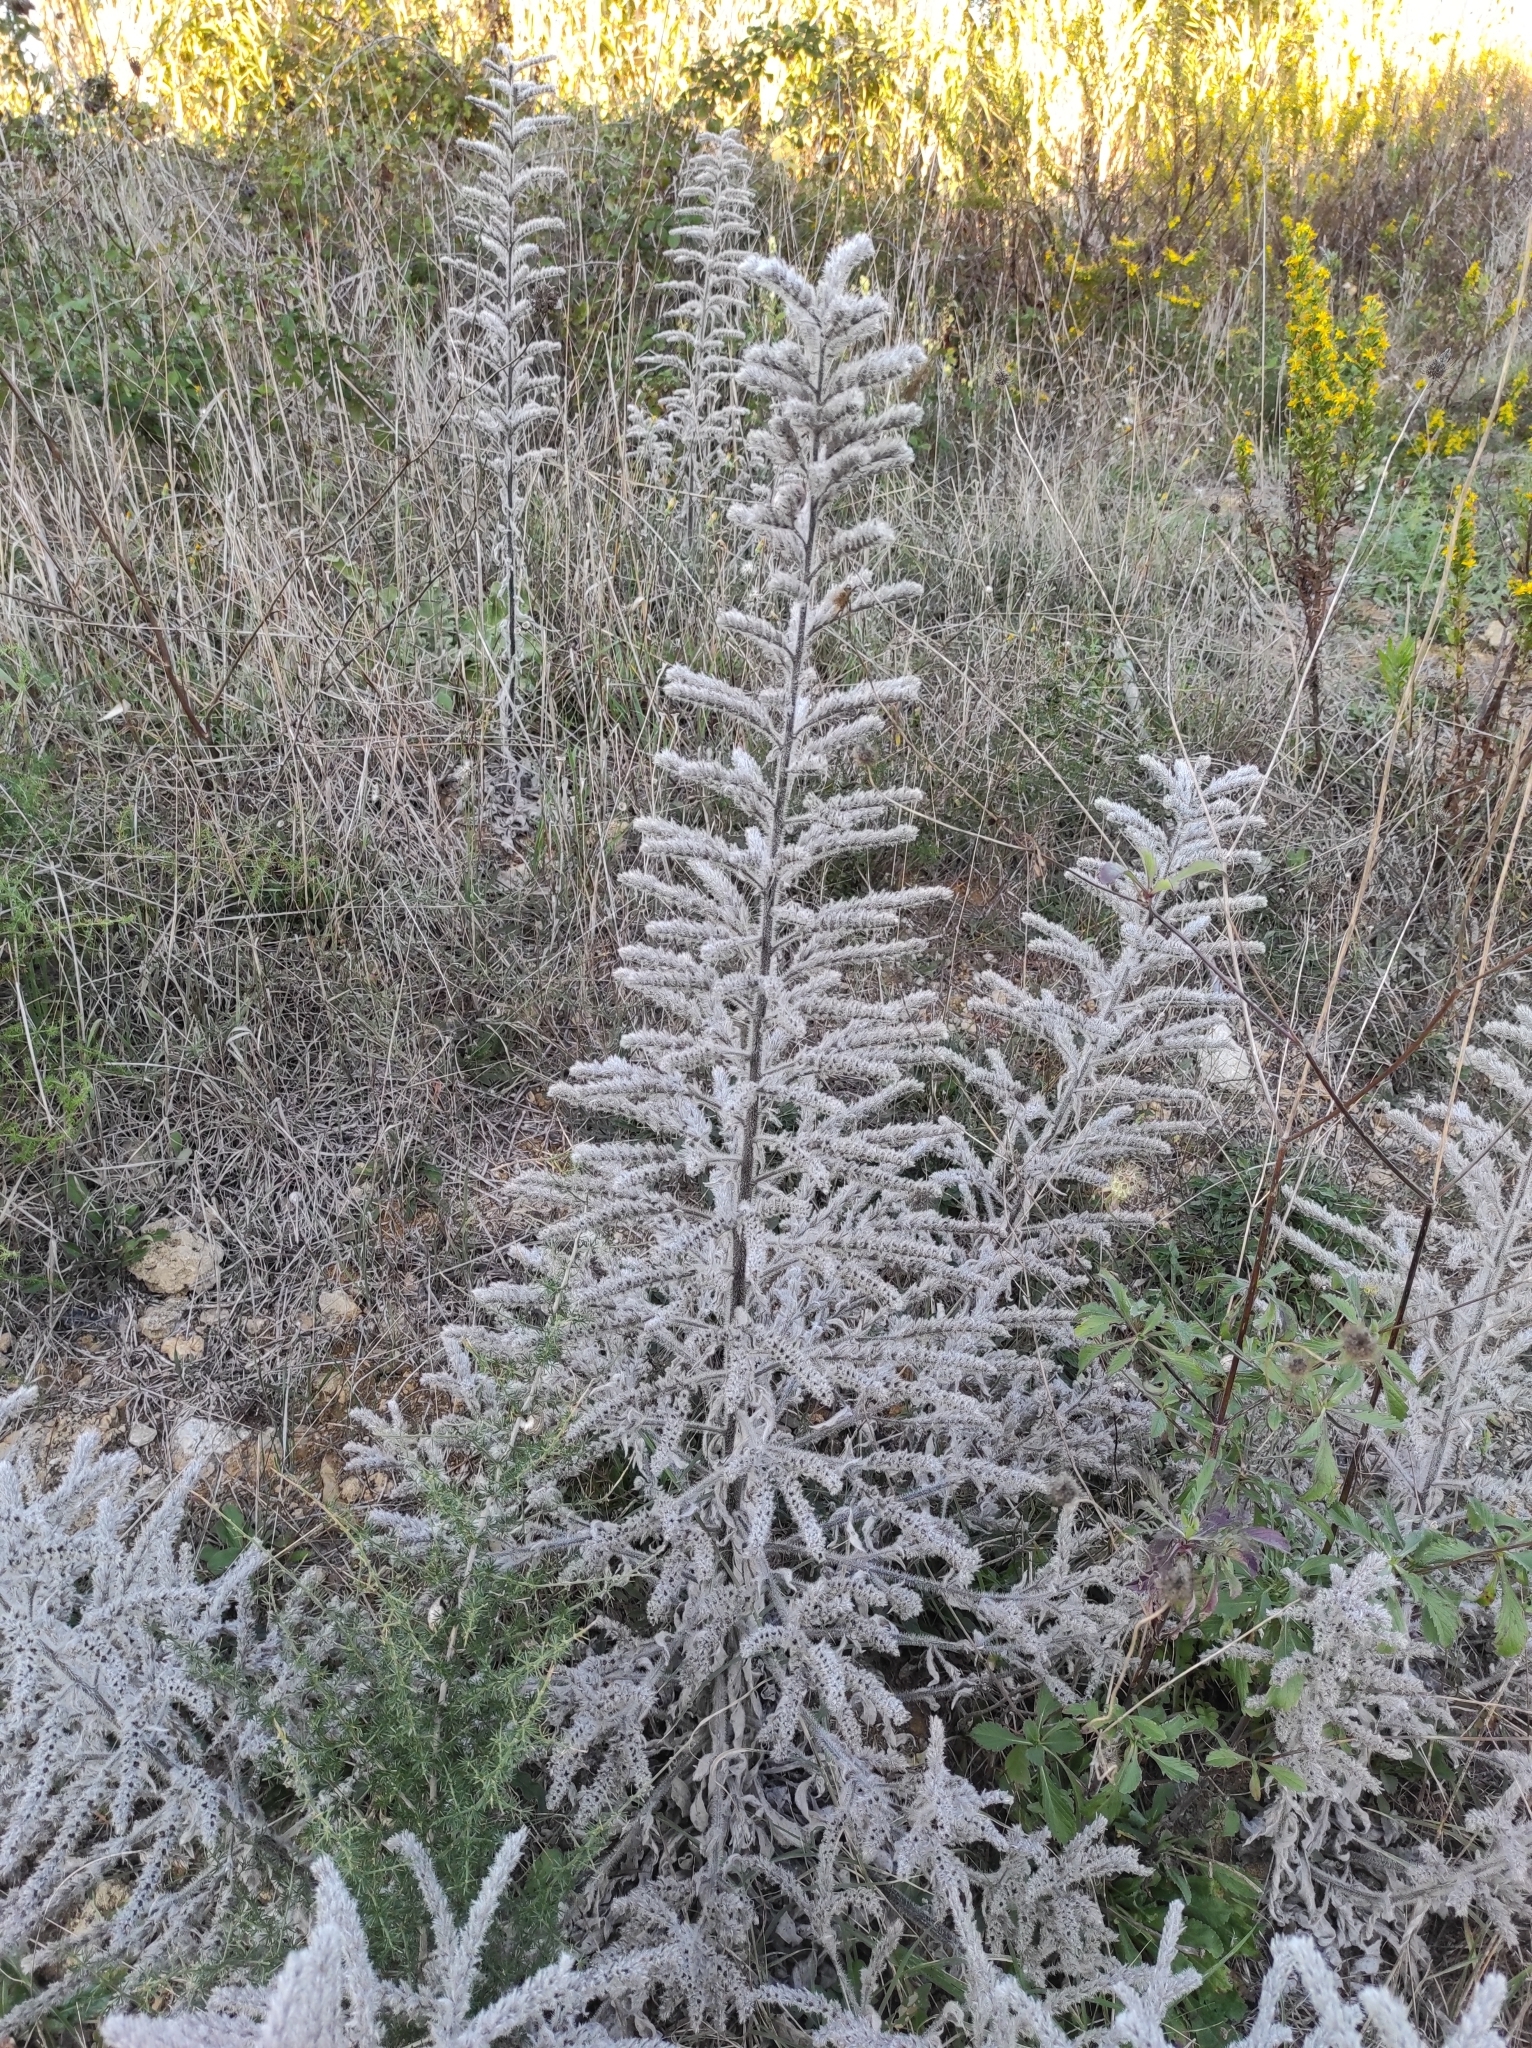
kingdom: Plantae
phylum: Tracheophyta
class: Magnoliopsida
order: Boraginales
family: Boraginaceae
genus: Echium
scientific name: Echium italicum
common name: Italian viper's bugloss
